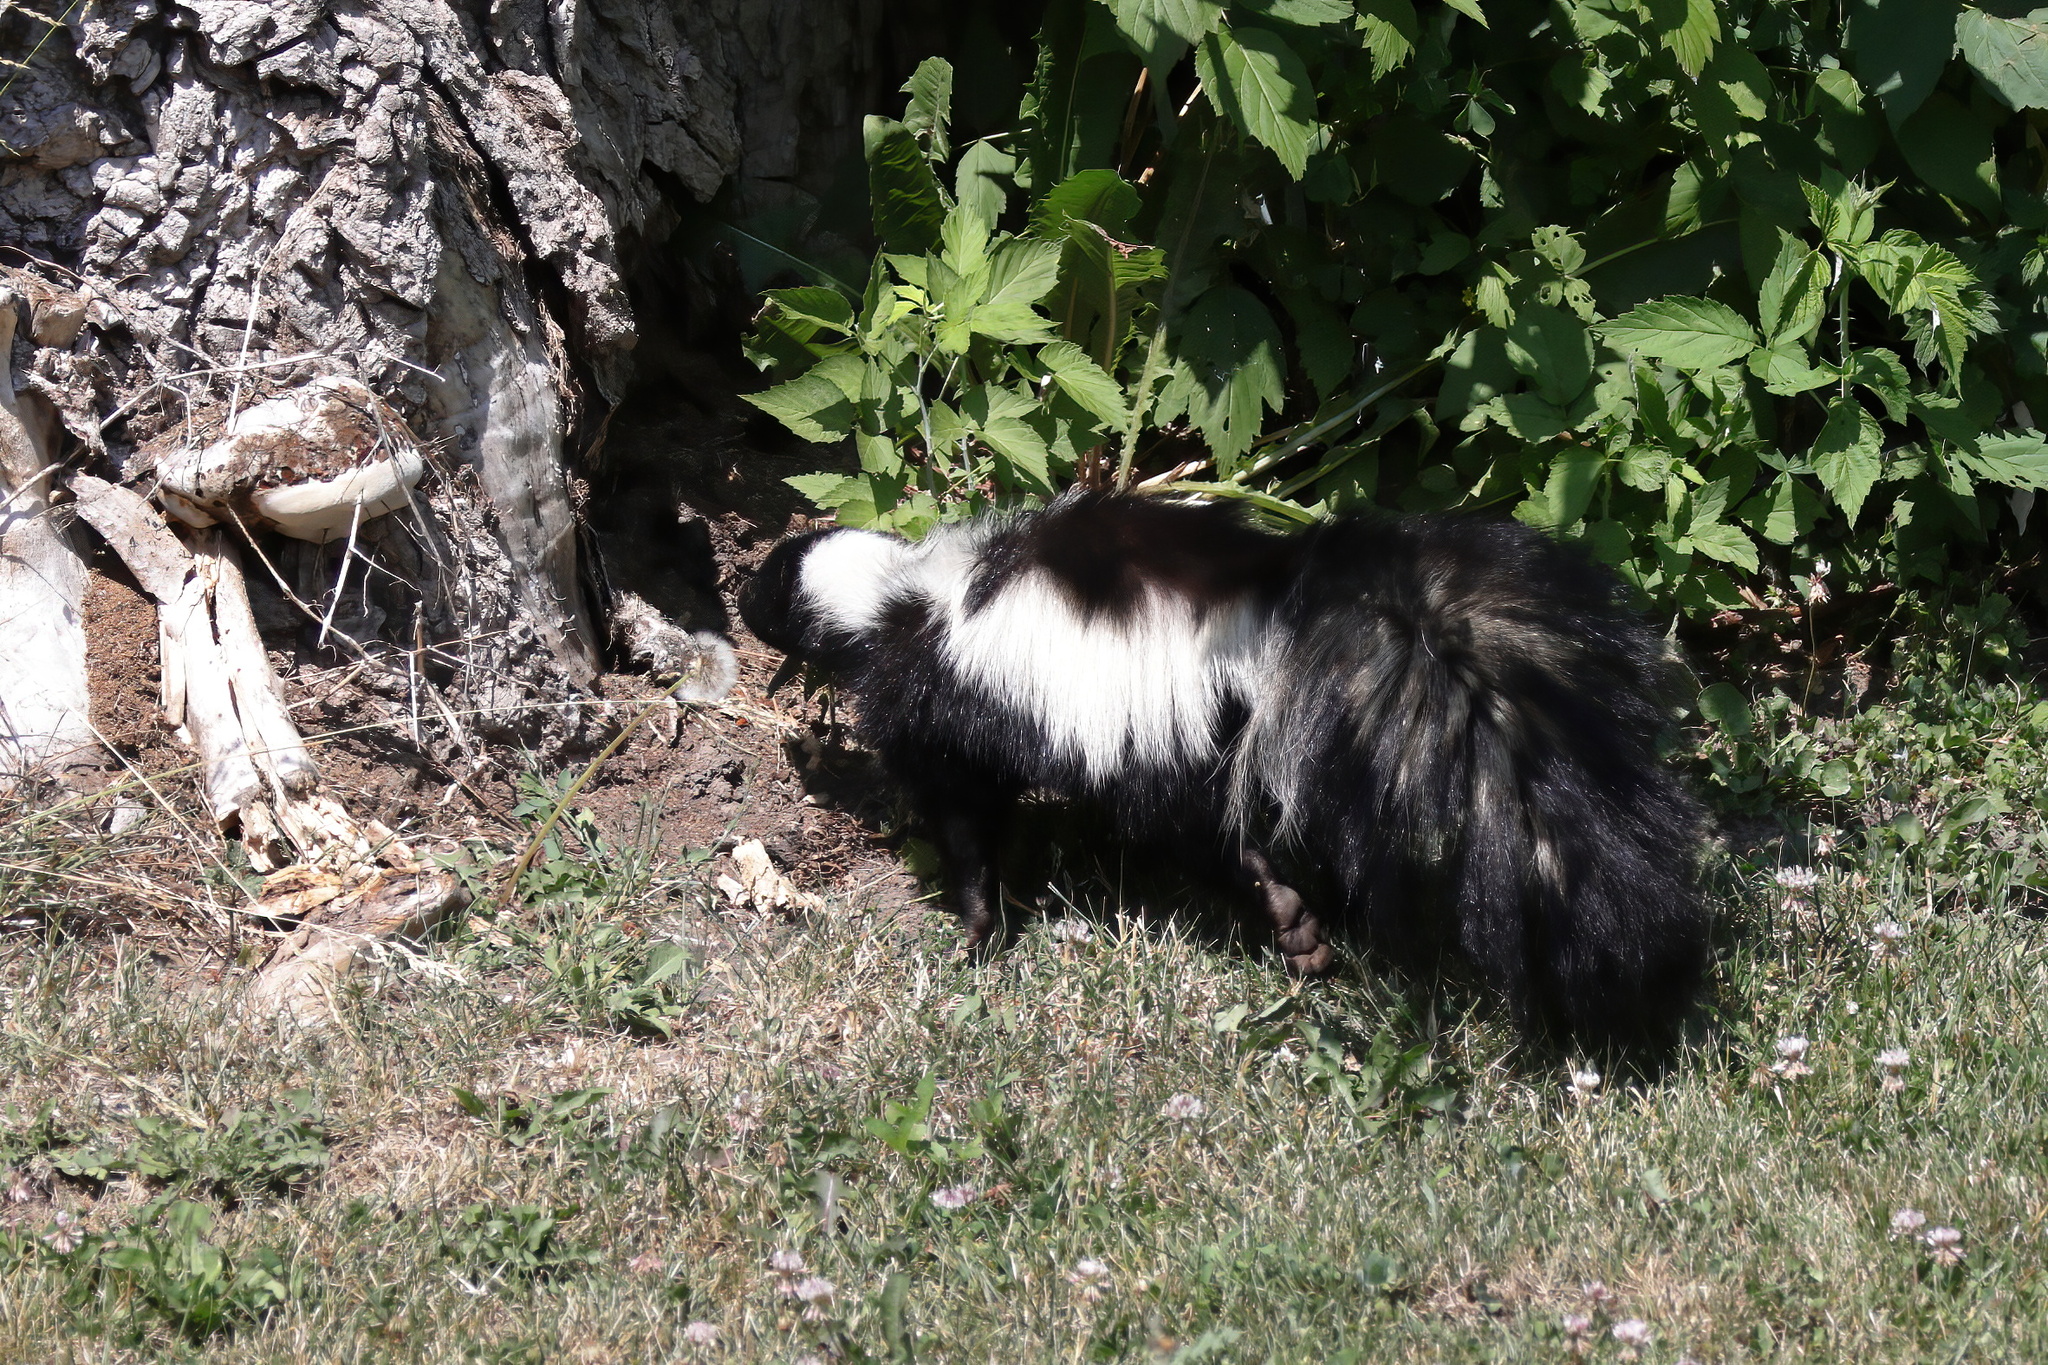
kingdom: Animalia
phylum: Chordata
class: Mammalia
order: Carnivora
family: Mephitidae
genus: Mephitis
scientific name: Mephitis mephitis
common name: Striped skunk
